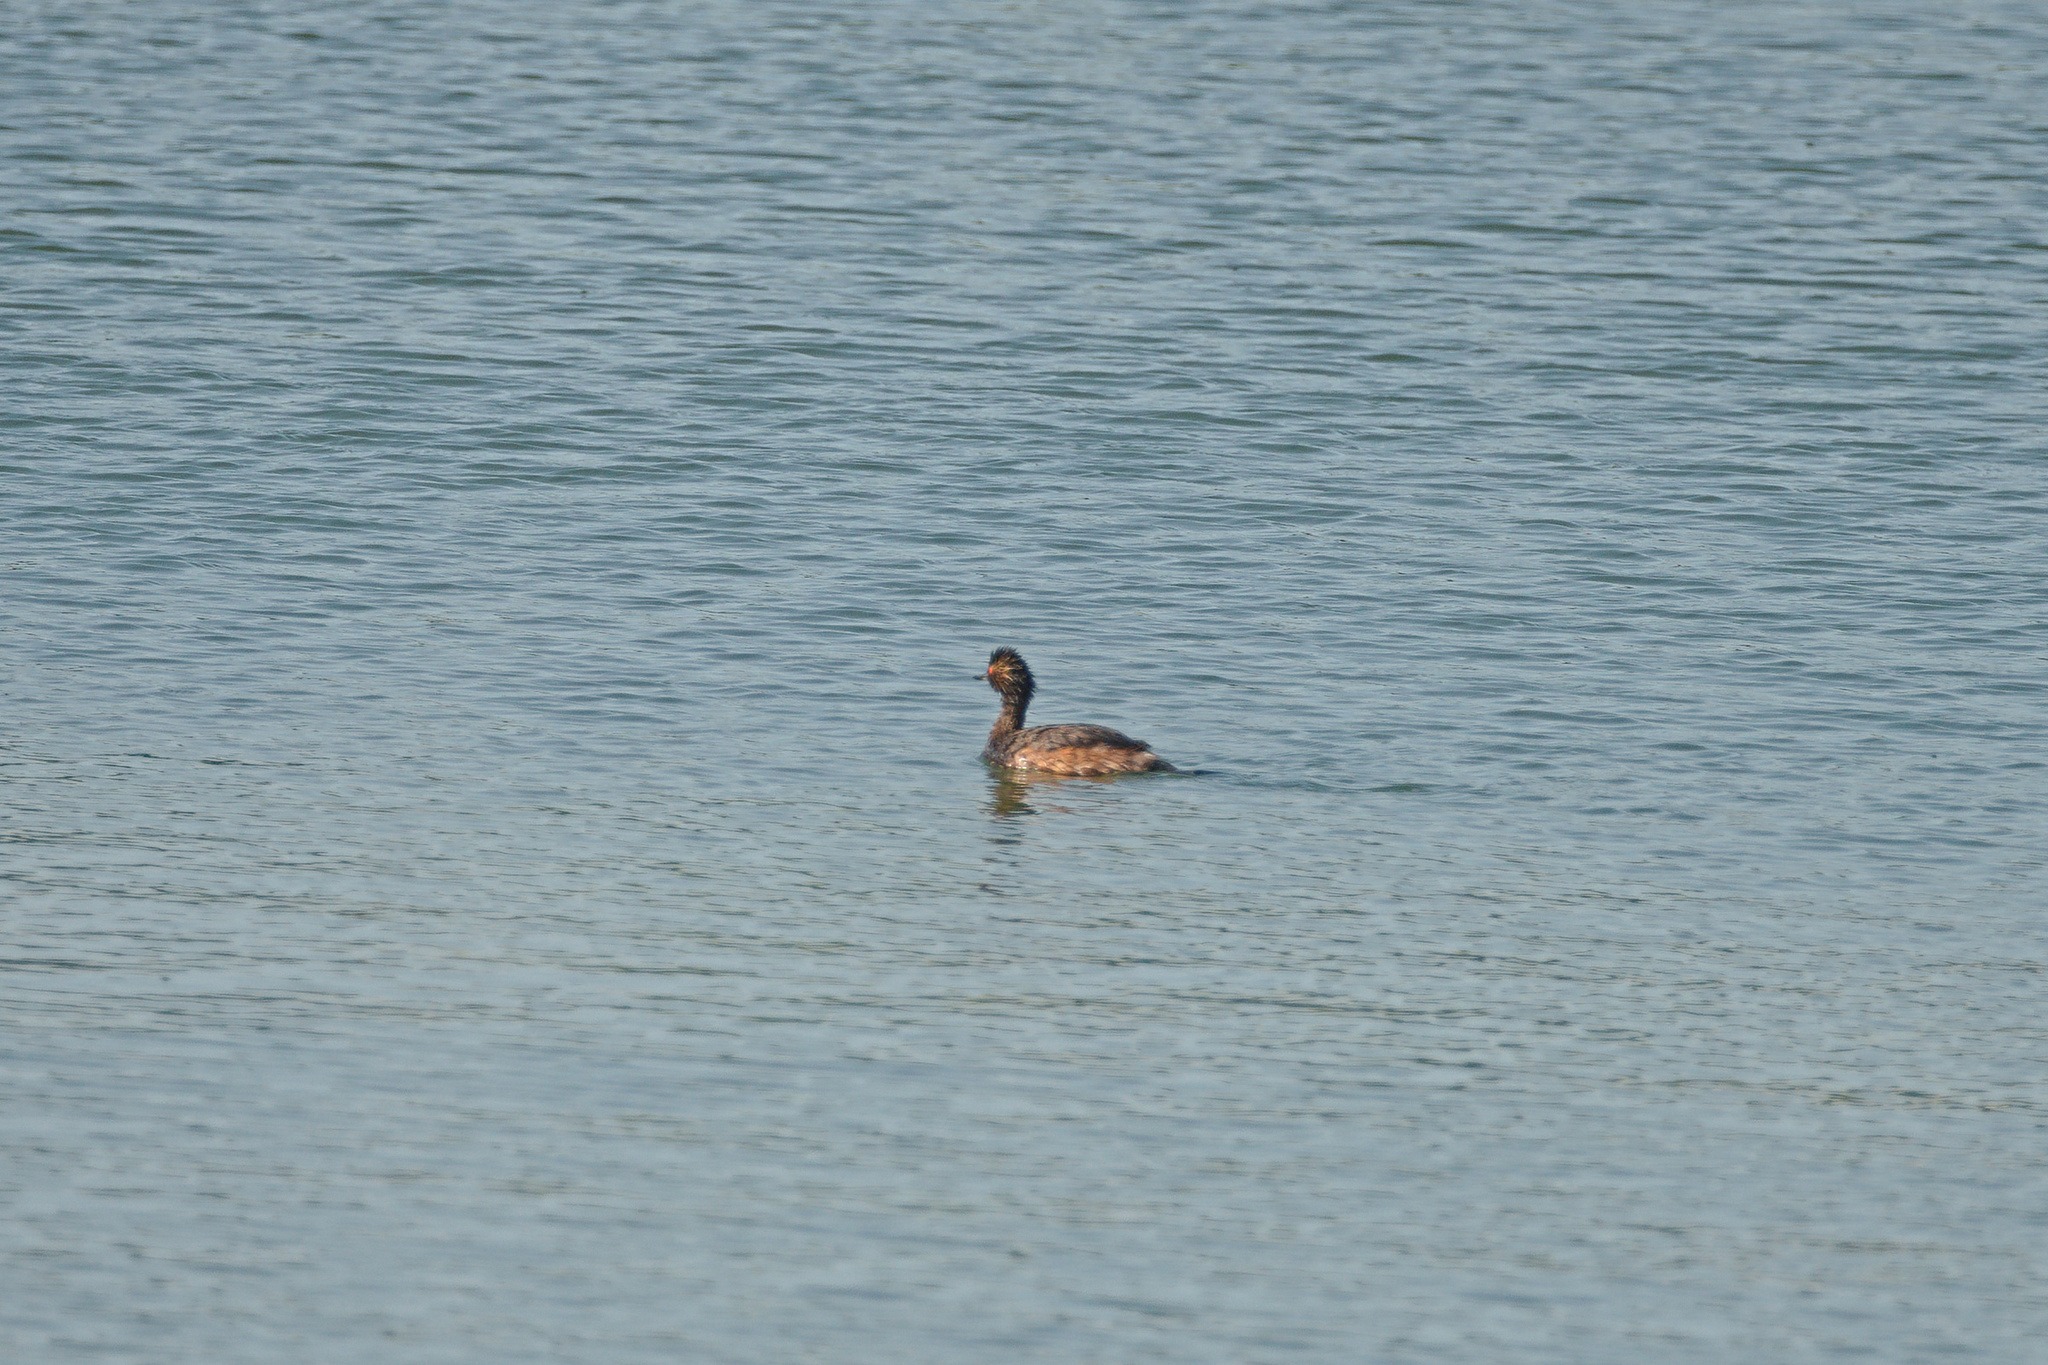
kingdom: Animalia
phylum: Chordata
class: Aves
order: Podicipediformes
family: Podicipedidae
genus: Podiceps
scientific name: Podiceps nigricollis
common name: Black-necked grebe
